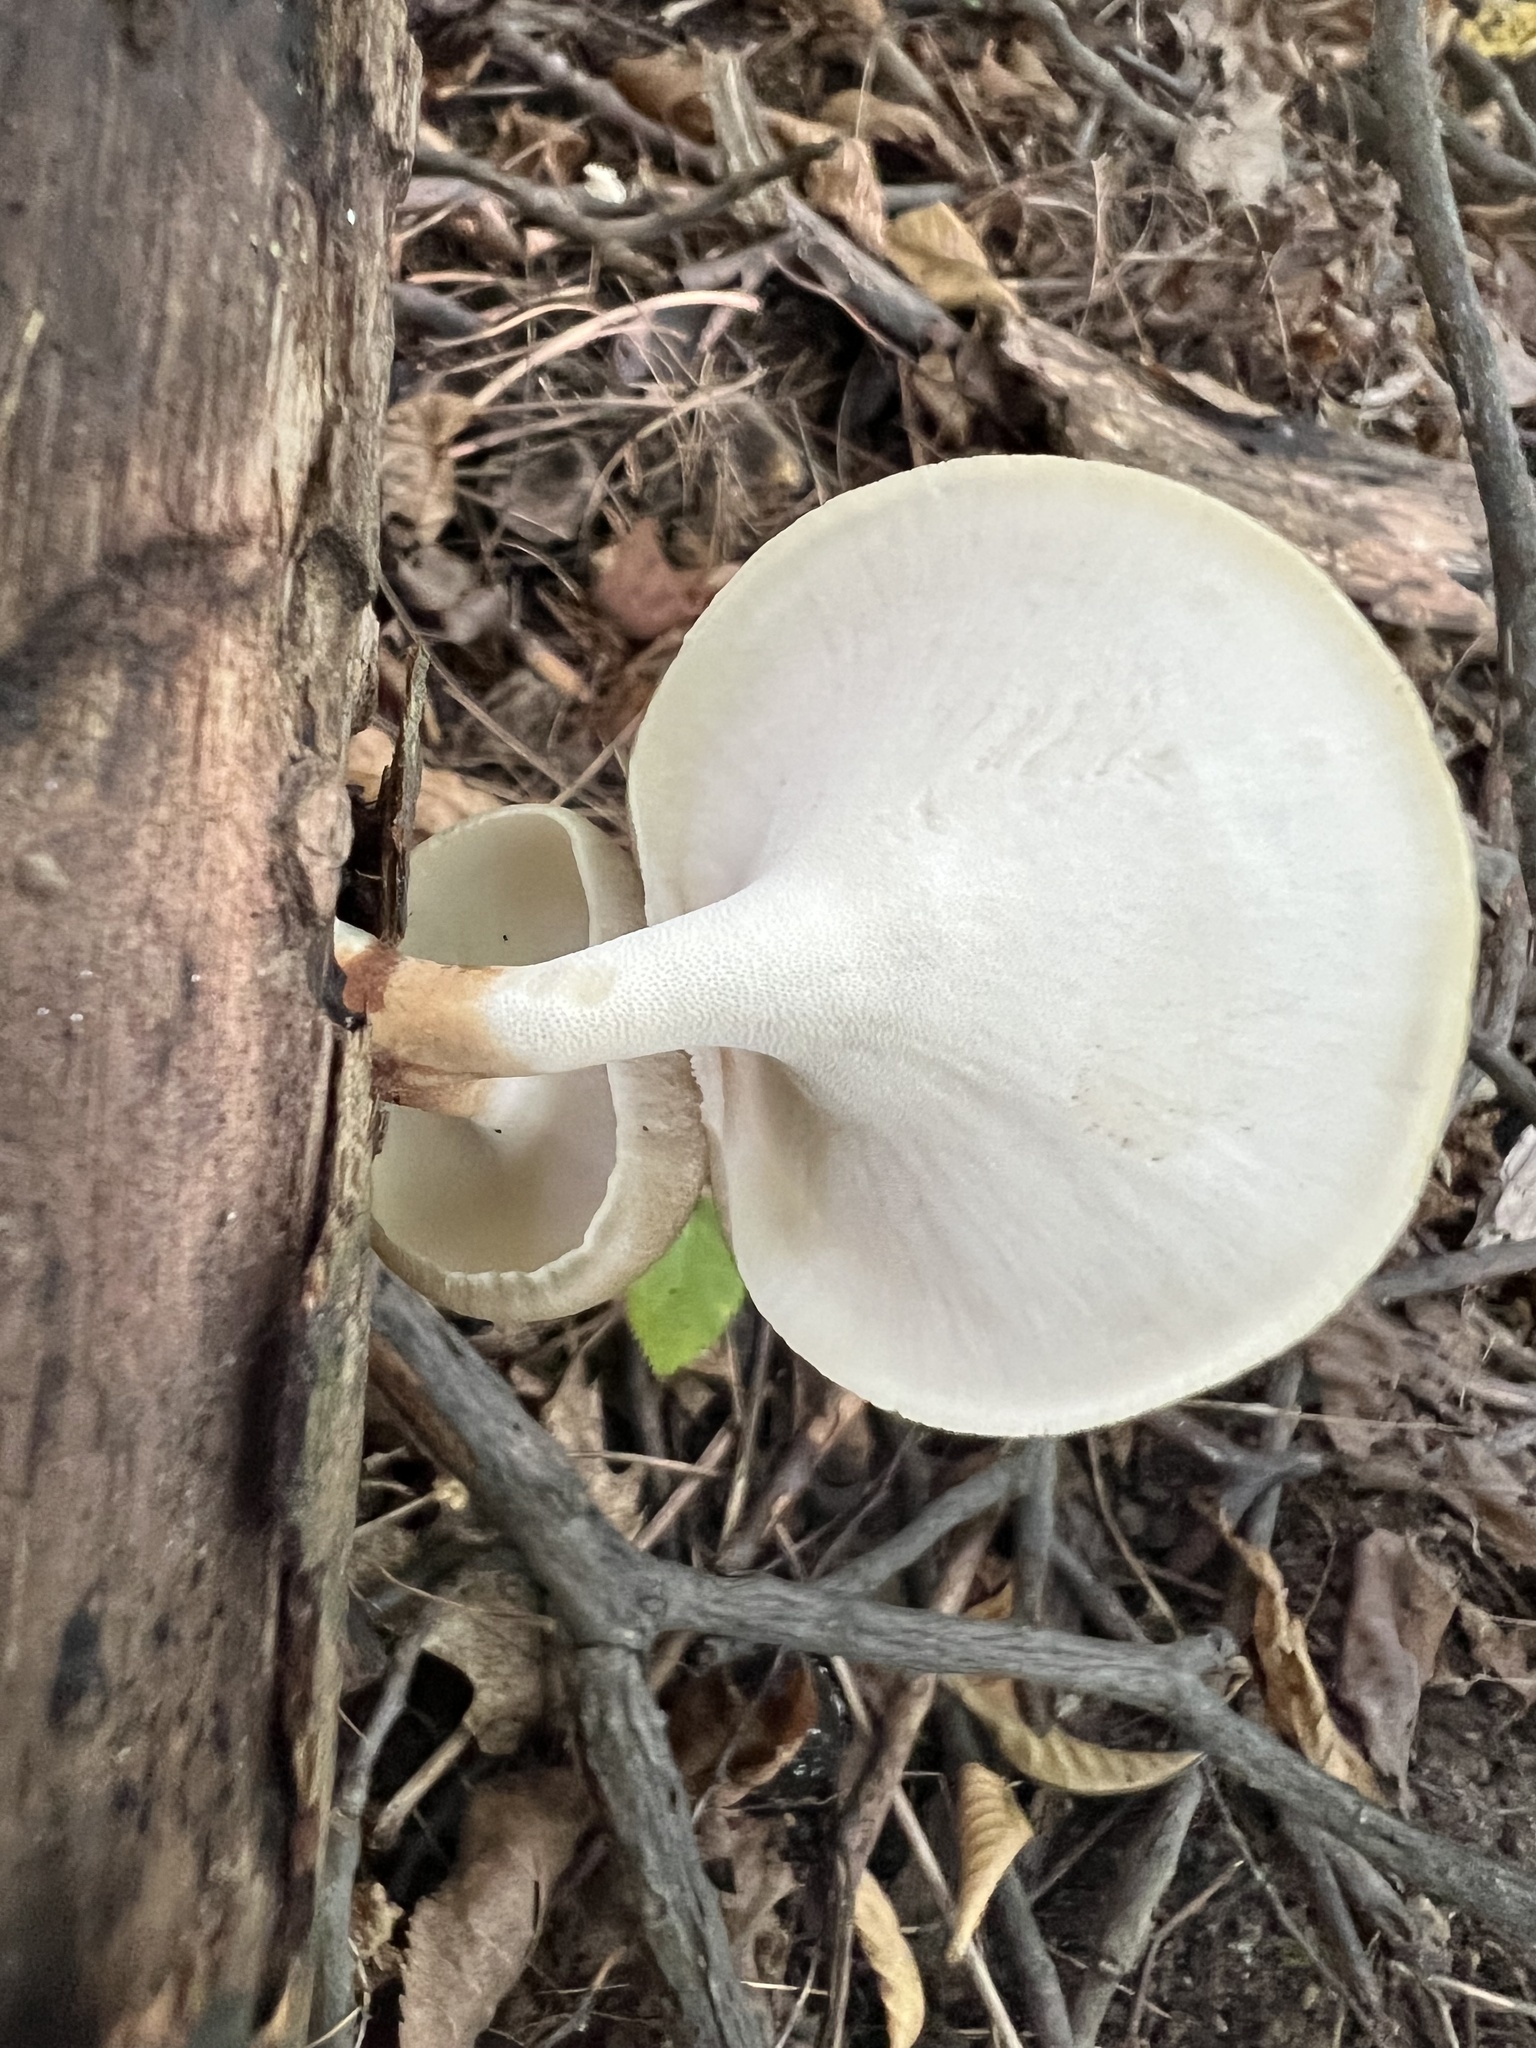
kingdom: Fungi
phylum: Basidiomycota
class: Agaricomycetes
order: Polyporales
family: Polyporaceae
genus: Picipes
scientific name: Picipes badius
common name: Bay polypore
